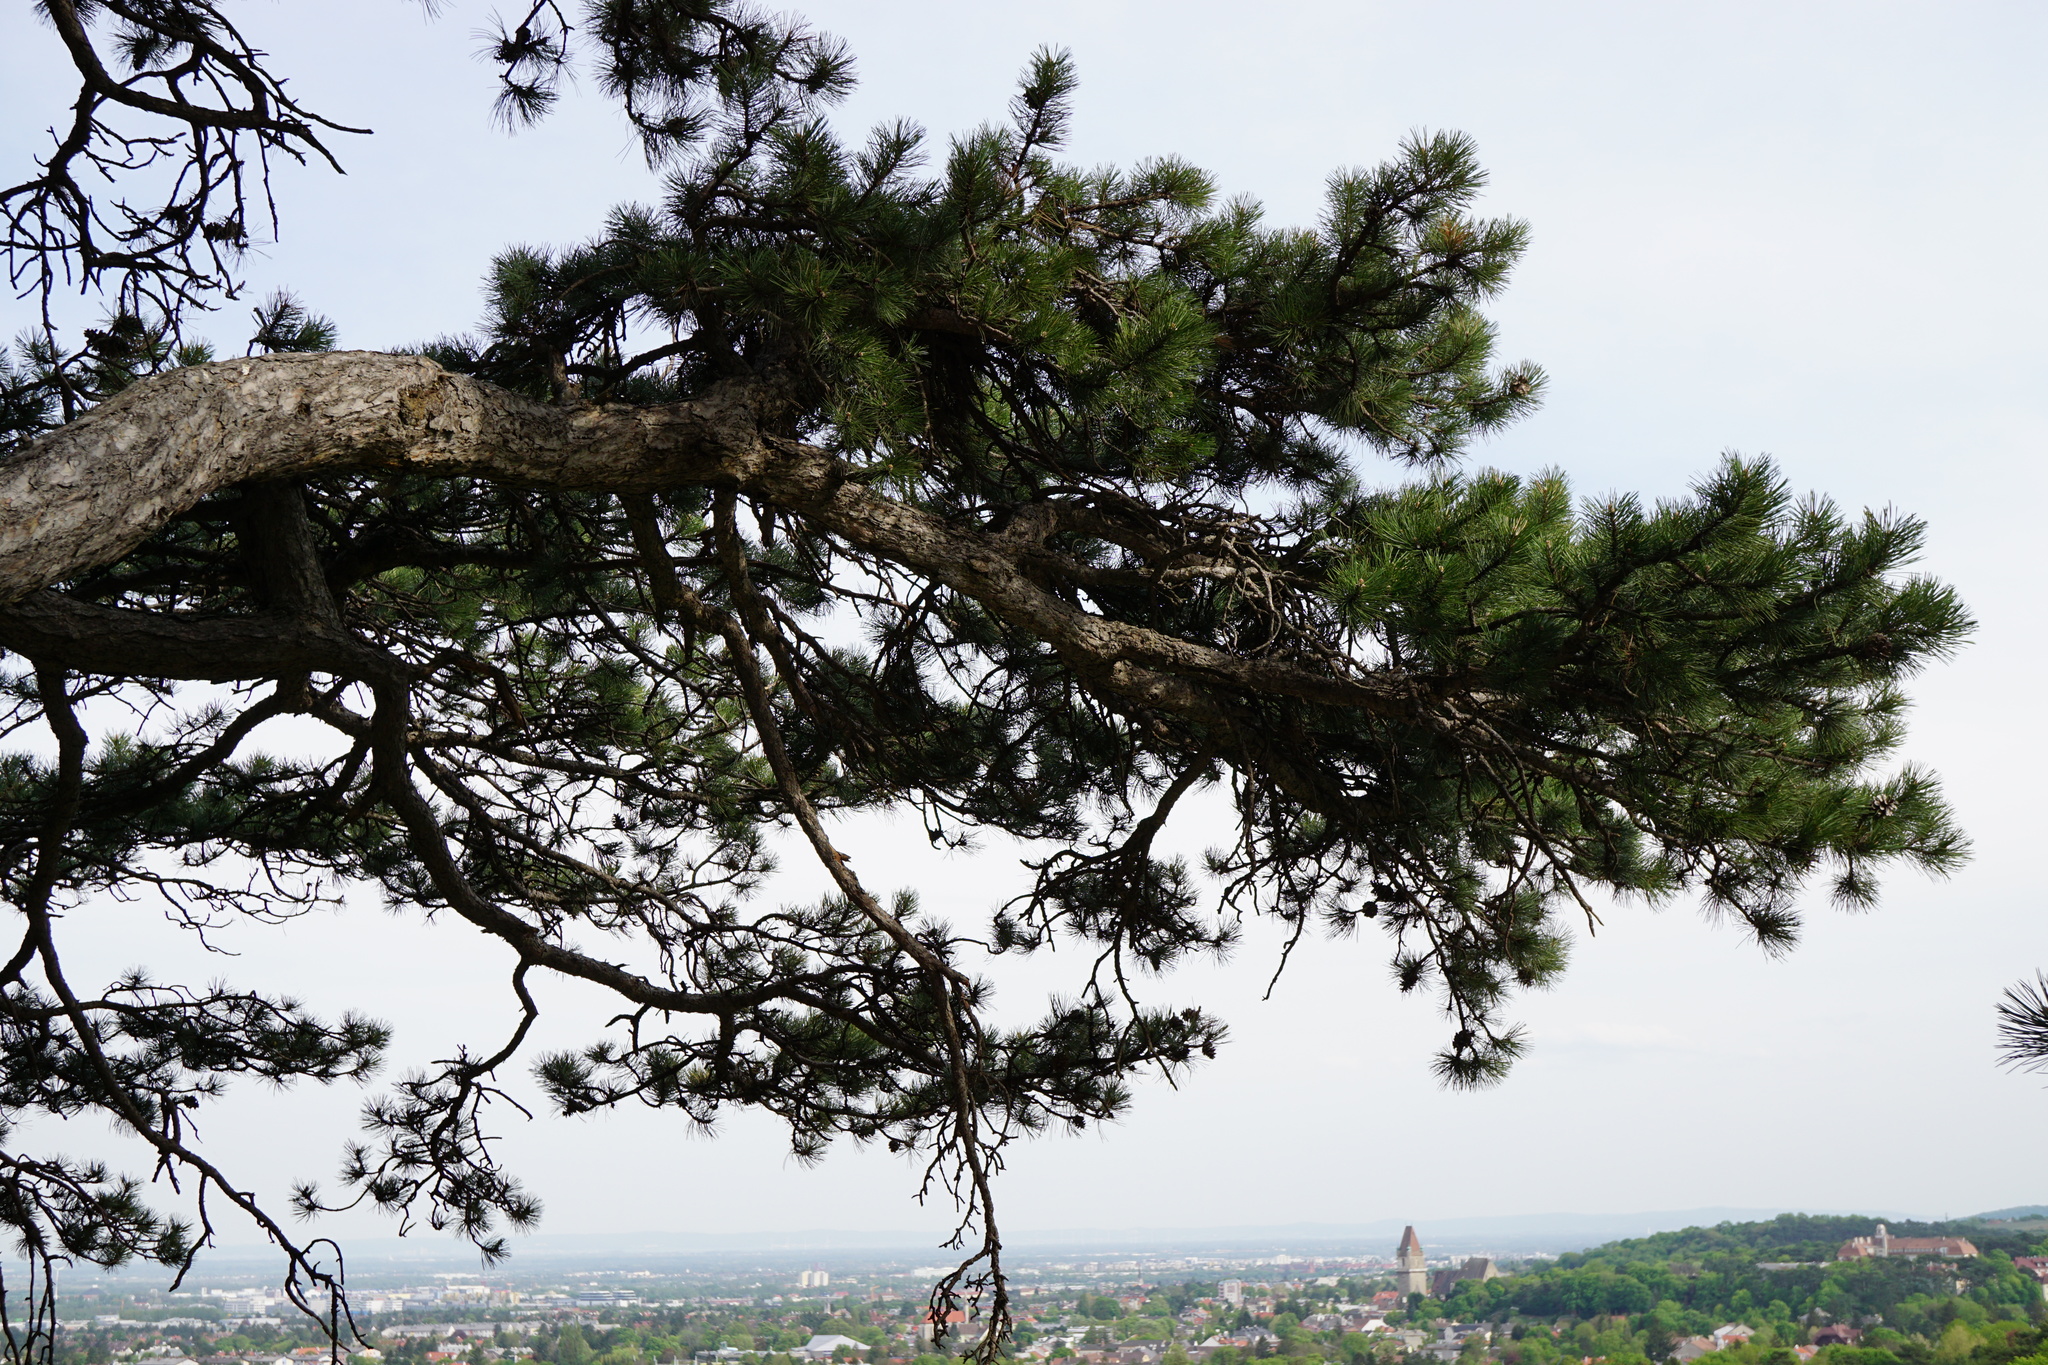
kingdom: Plantae
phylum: Tracheophyta
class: Pinopsida
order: Pinales
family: Pinaceae
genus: Pinus
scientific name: Pinus nigra
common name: Austrian pine
